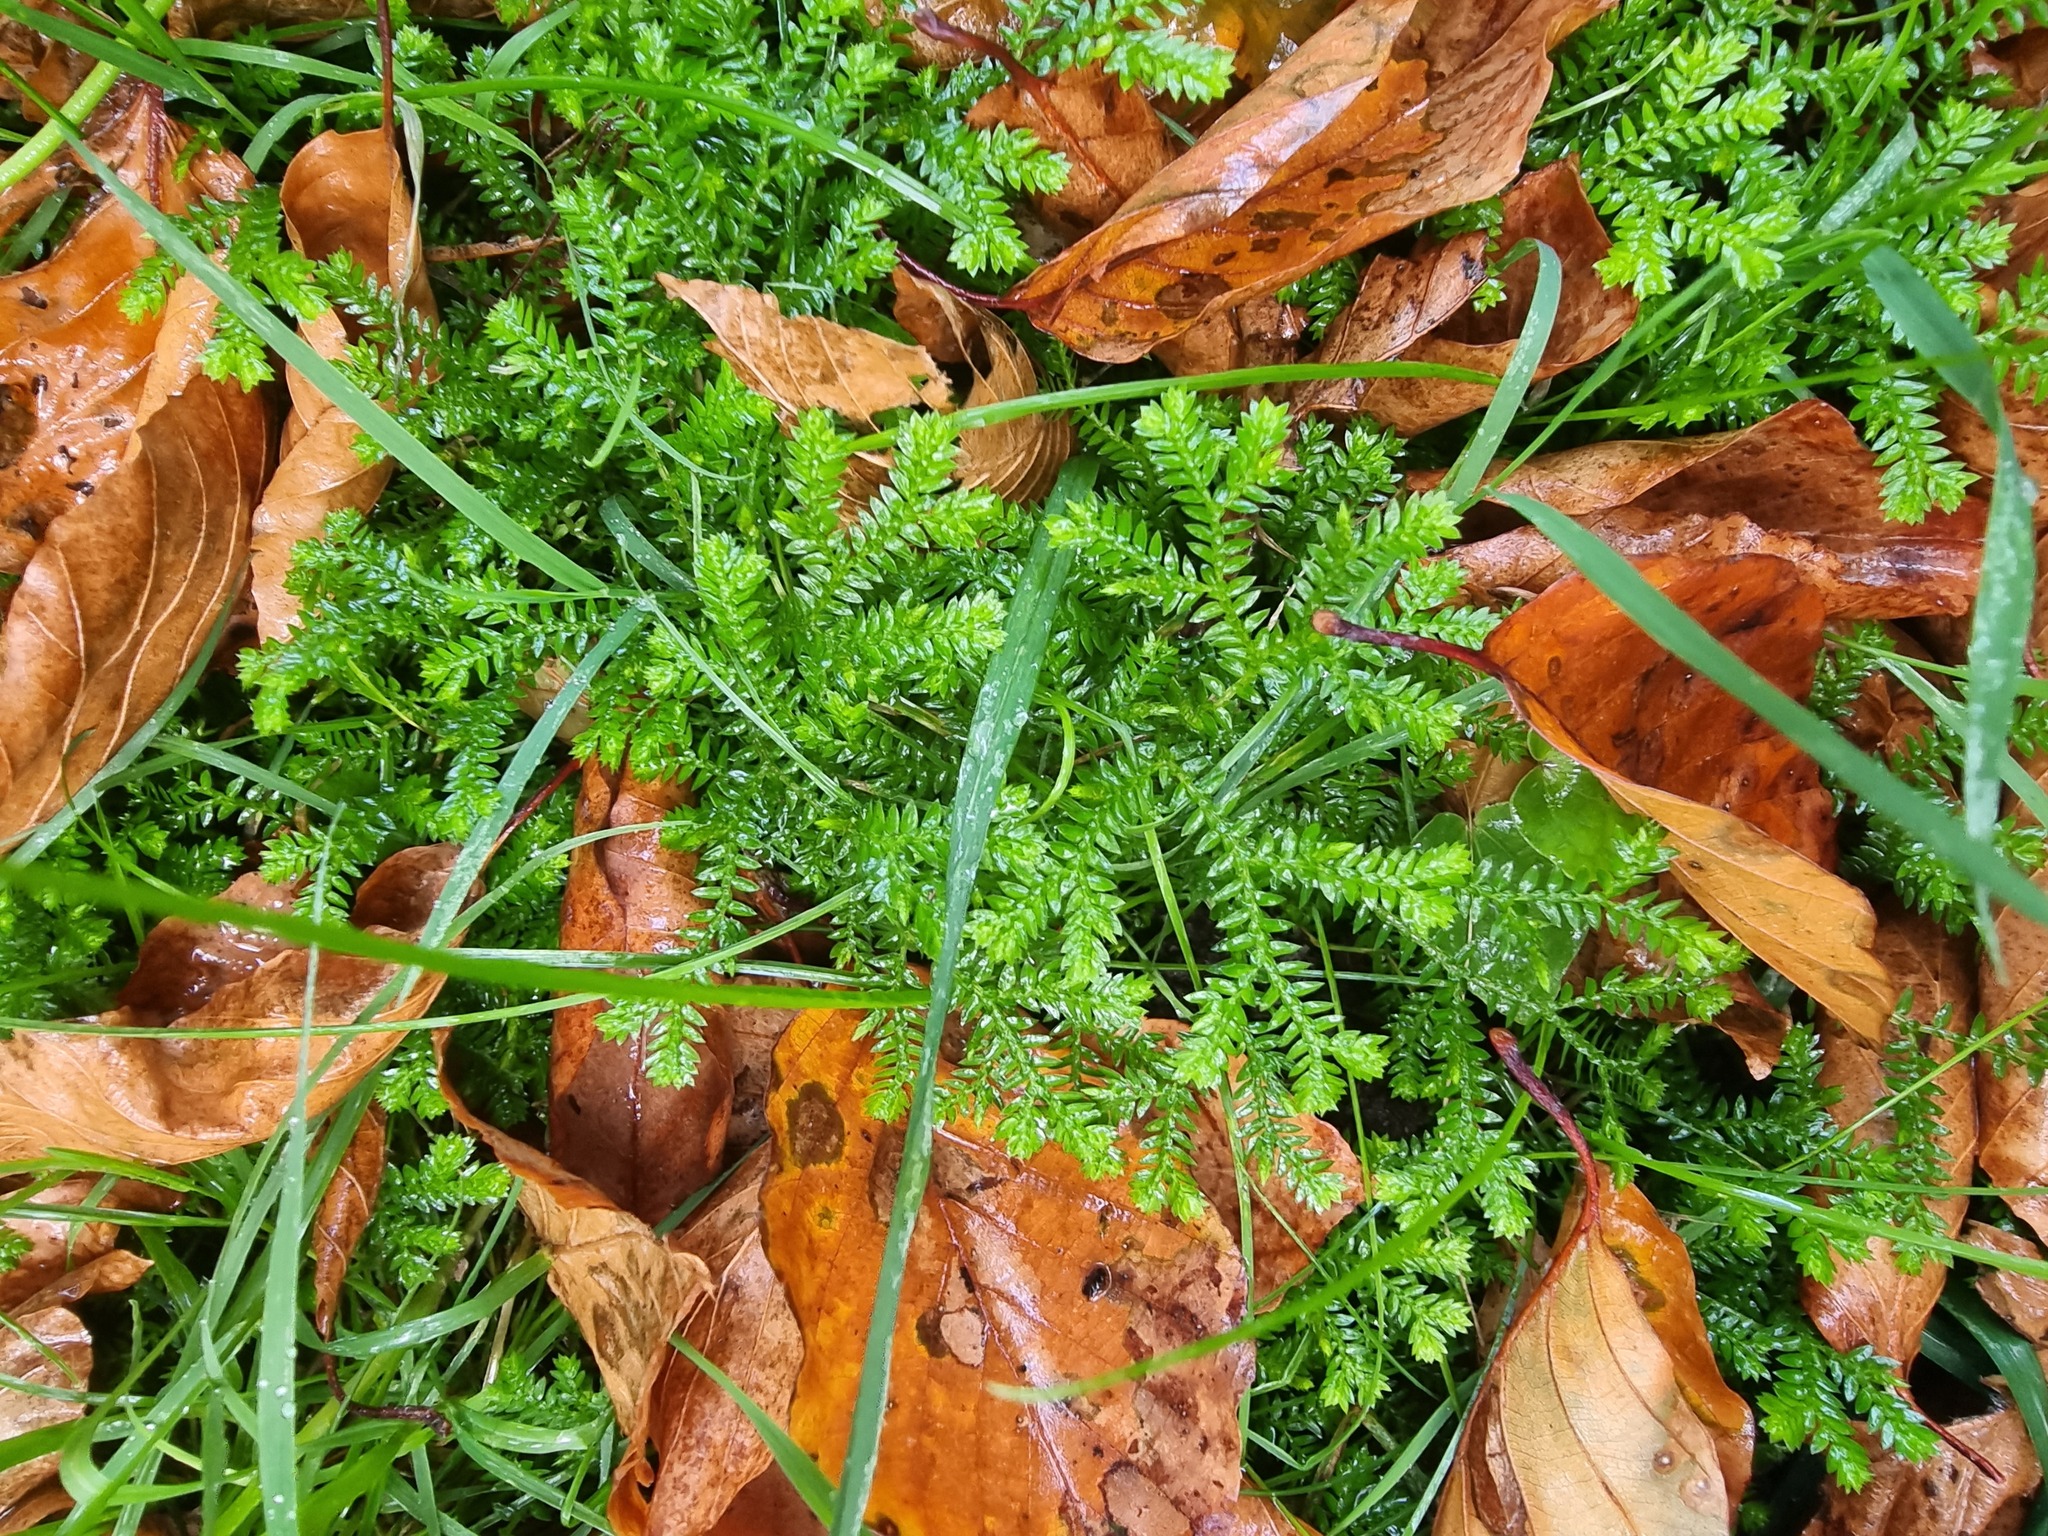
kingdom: Plantae
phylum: Tracheophyta
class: Lycopodiopsida
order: Selaginellales
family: Selaginellaceae
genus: Selaginella
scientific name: Selaginella kraussiana
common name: Krauss' spikemoss
